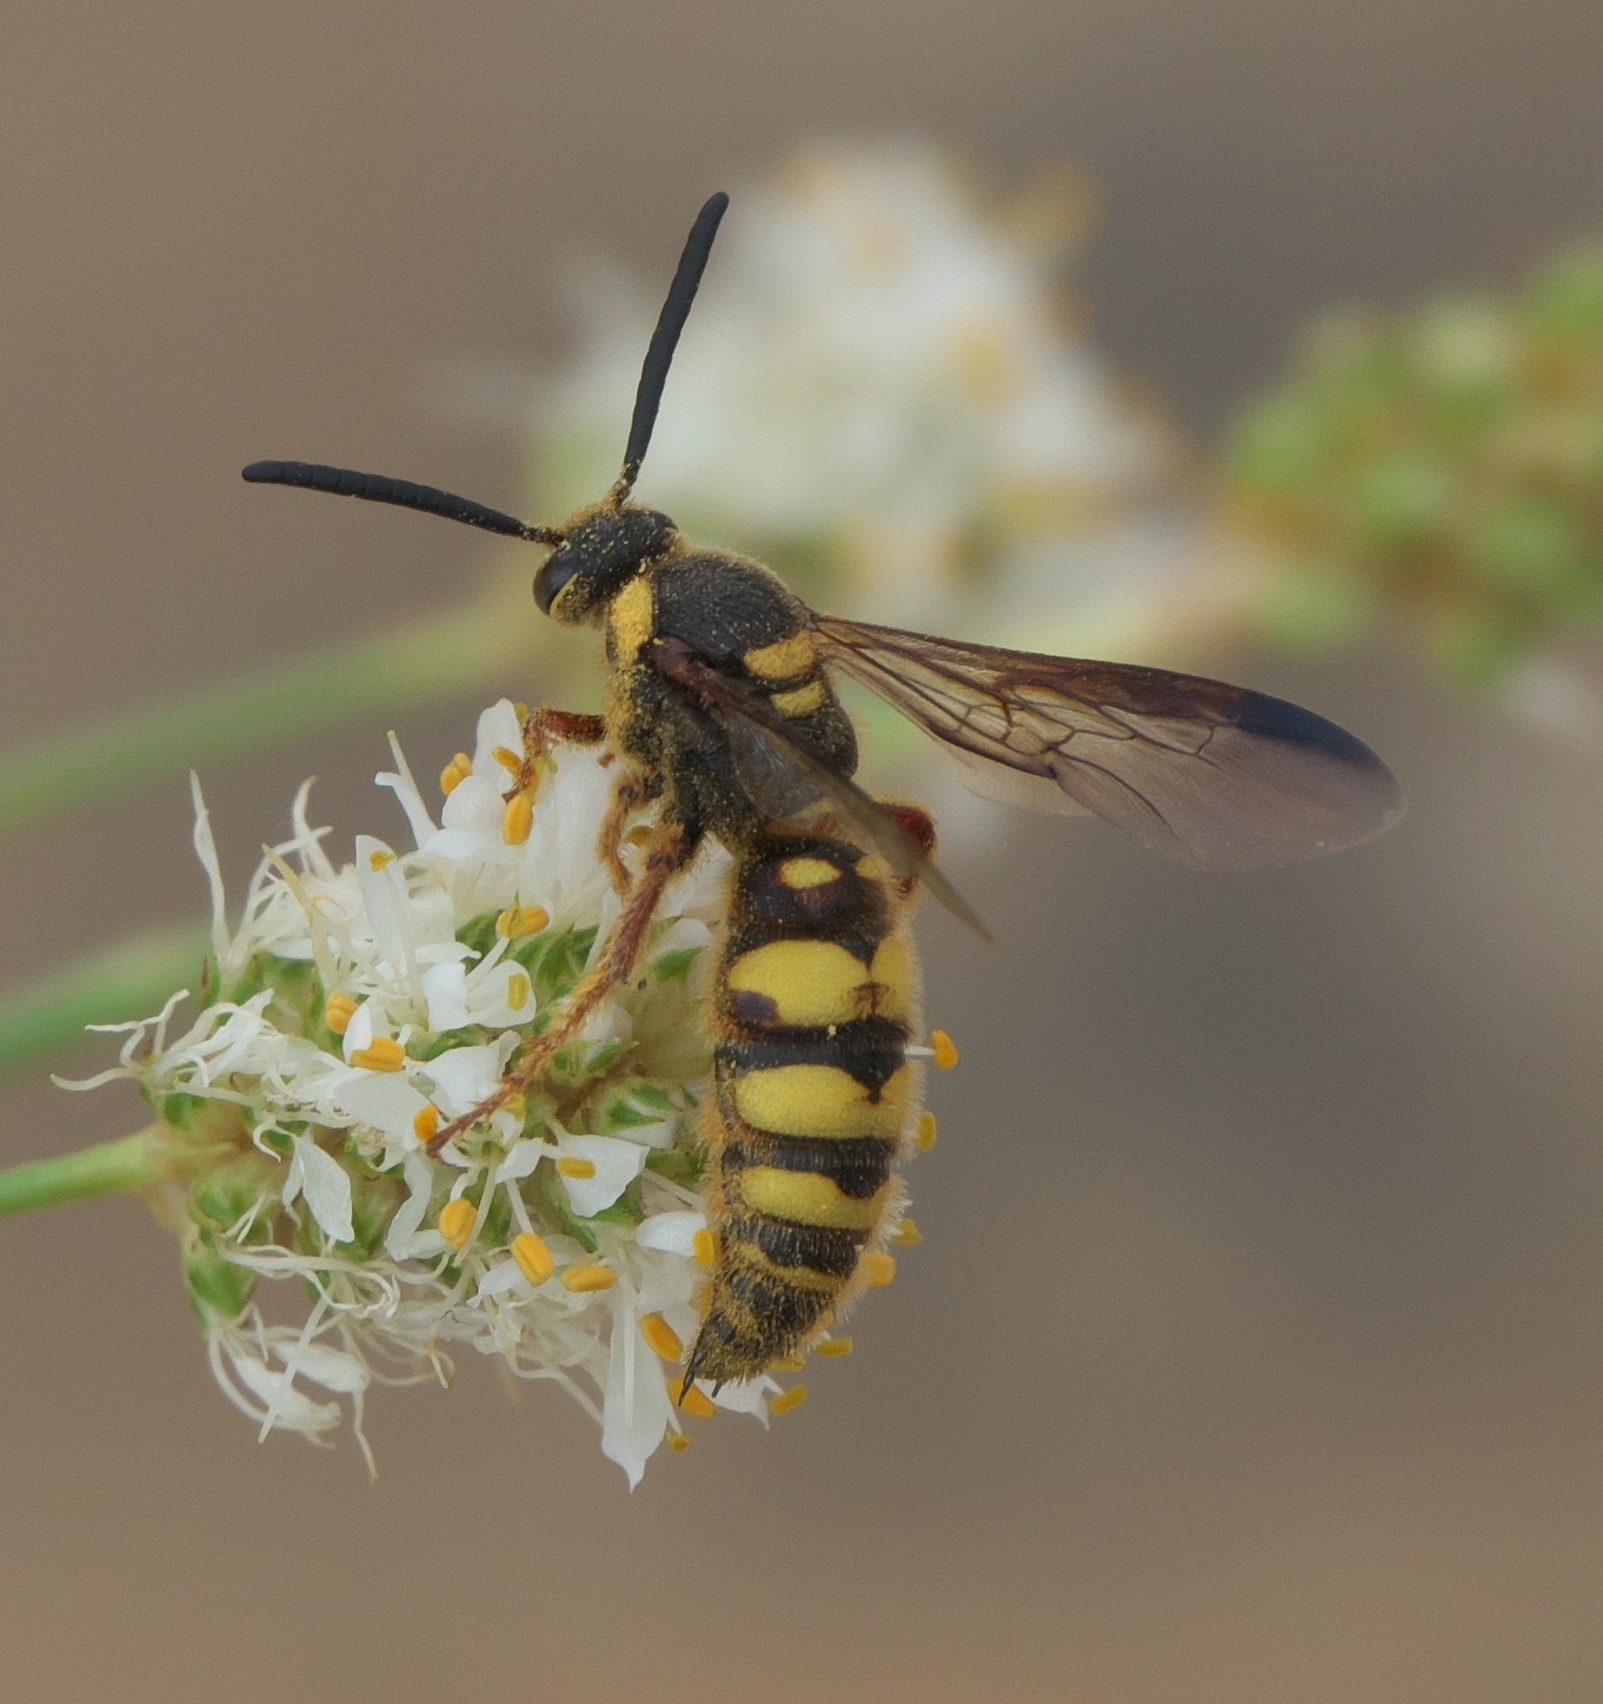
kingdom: Animalia
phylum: Arthropoda
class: Insecta
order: Hymenoptera
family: Scoliidae
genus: Scolia
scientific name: Scolia nobilitata
